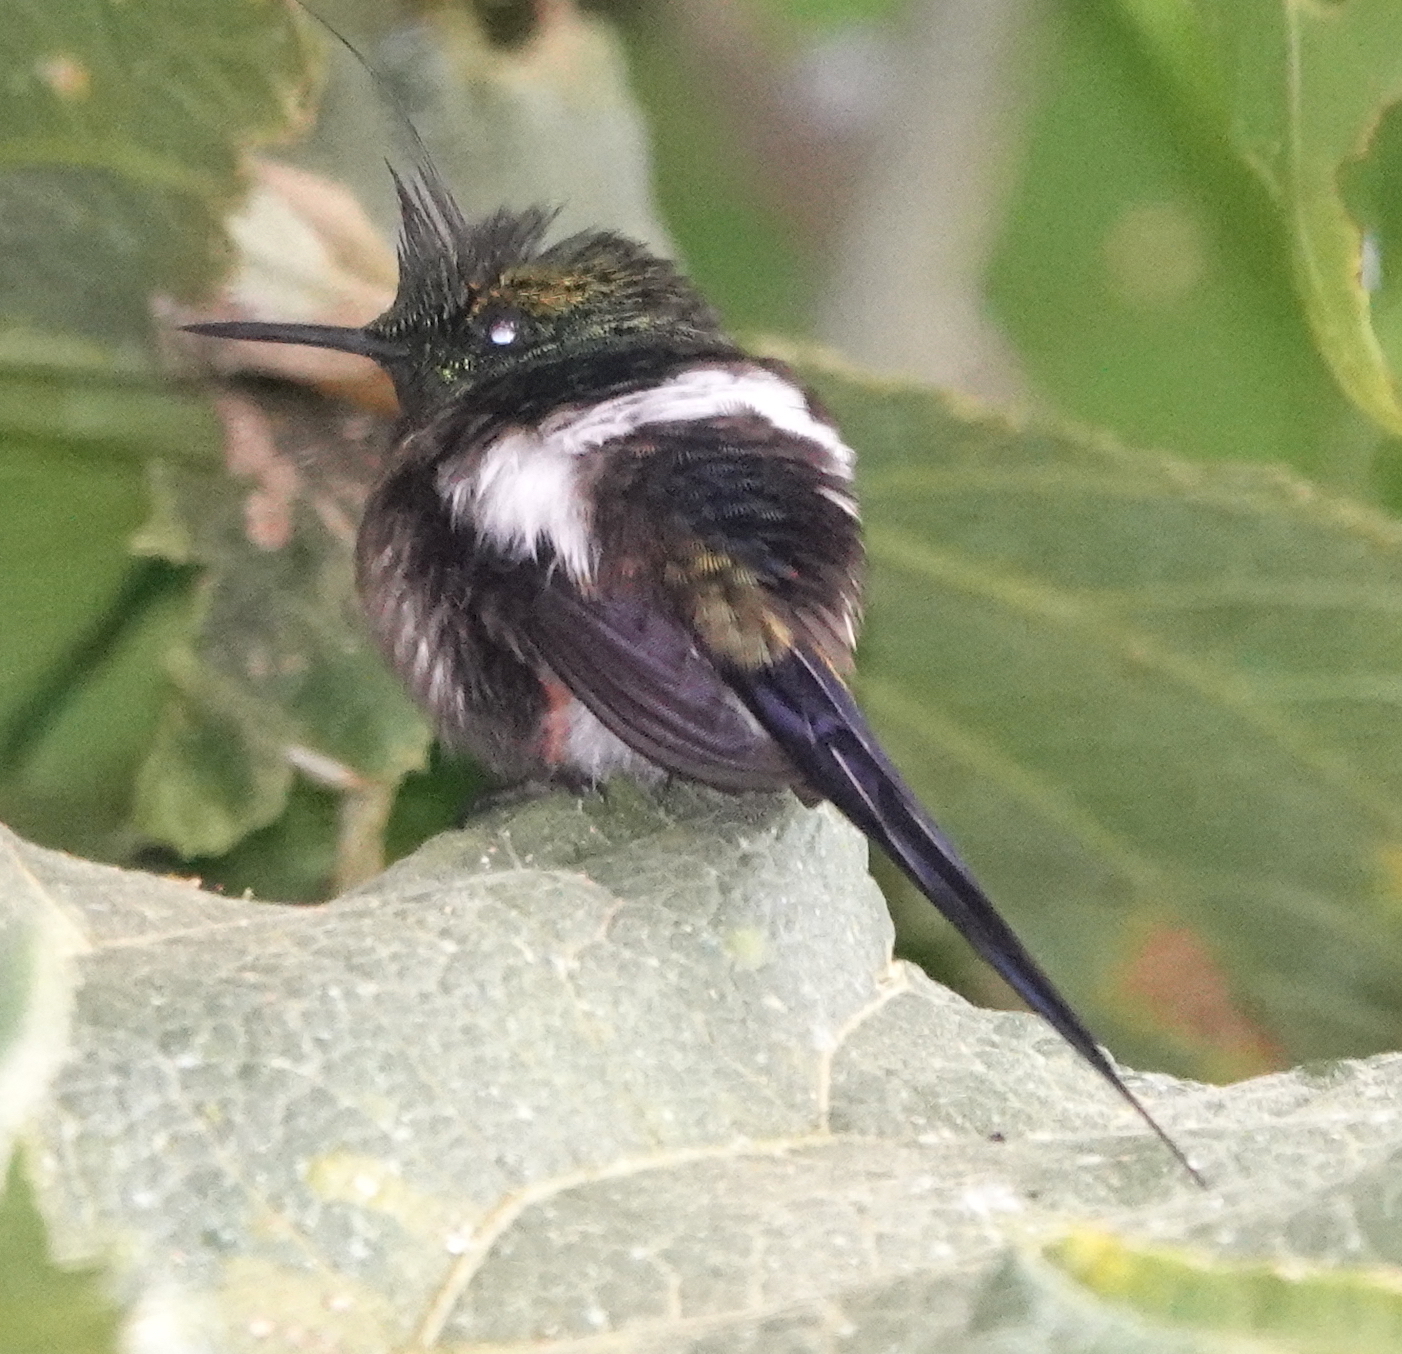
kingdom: Animalia
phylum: Chordata
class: Aves
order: Apodiformes
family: Trochilidae
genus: Discosura
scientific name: Discosura popelairii
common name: Wire-crested thorntail
